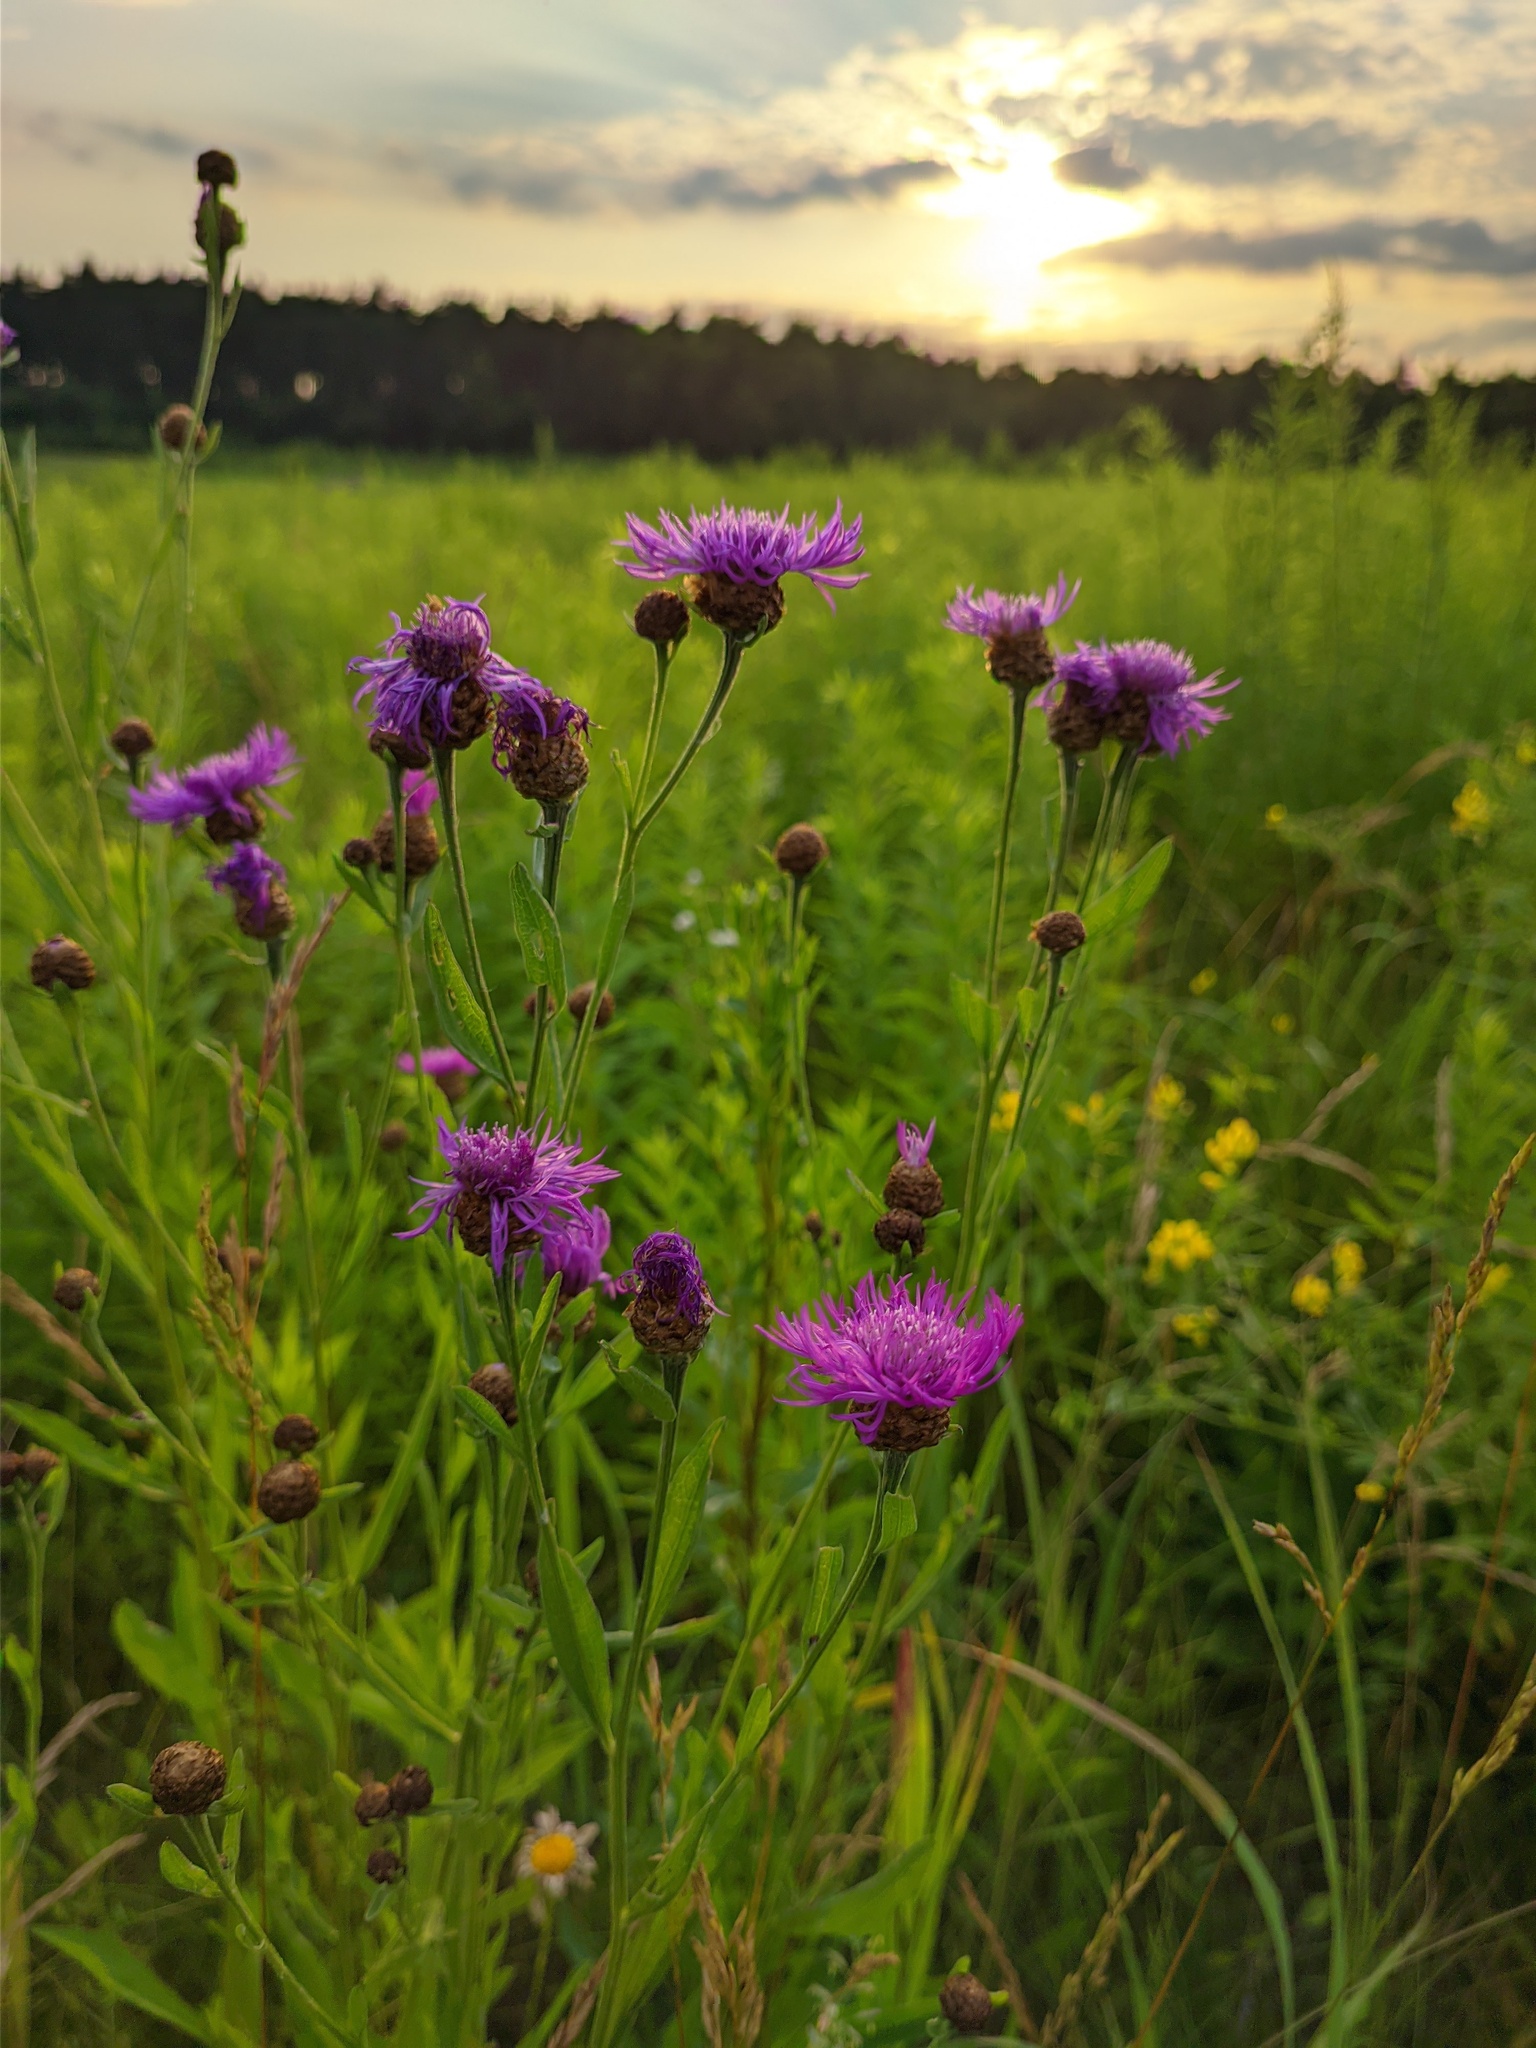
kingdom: Plantae
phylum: Tracheophyta
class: Magnoliopsida
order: Asterales
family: Asteraceae
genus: Centaurea
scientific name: Centaurea jacea
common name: Brown knapweed
